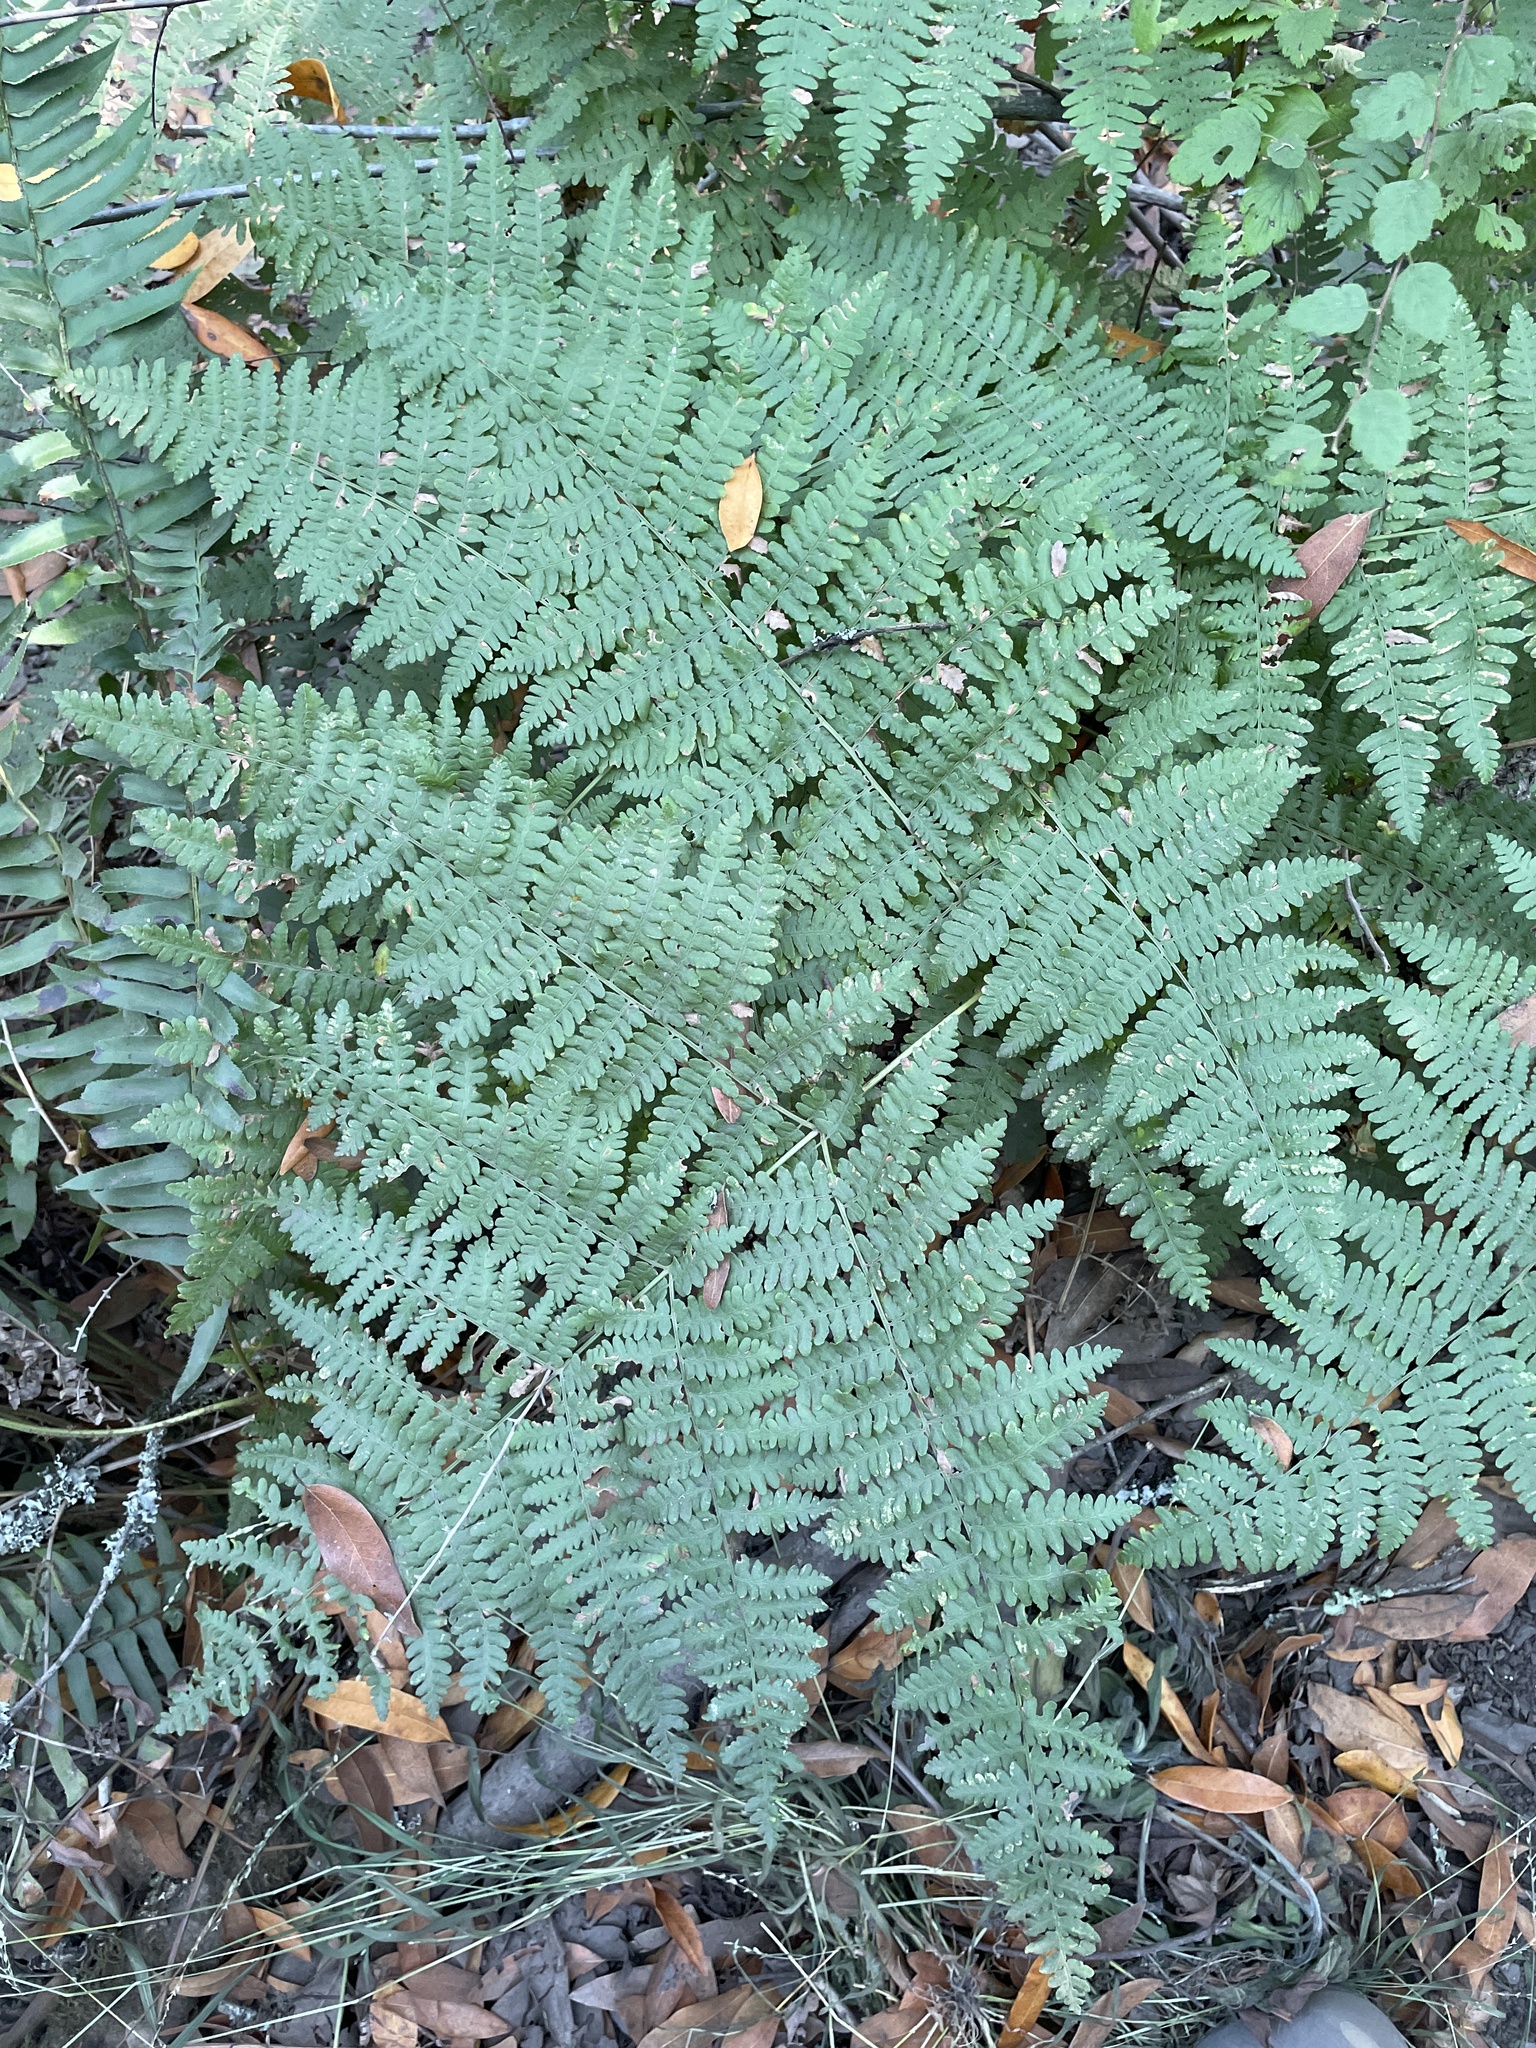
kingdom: Plantae
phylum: Tracheophyta
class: Polypodiopsida
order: Polypodiales
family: Dennstaedtiaceae
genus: Pteridium
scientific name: Pteridium aquilinum
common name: Bracken
